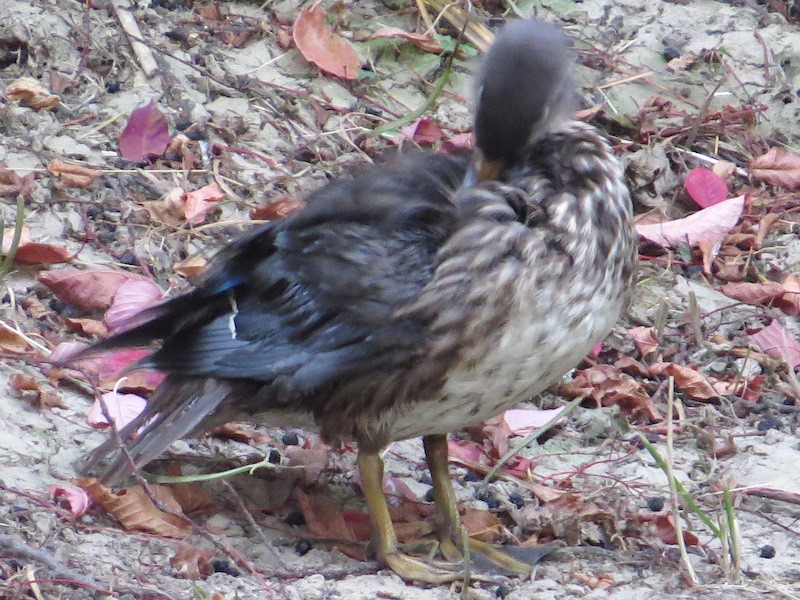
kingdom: Animalia
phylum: Chordata
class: Aves
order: Anseriformes
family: Anatidae
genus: Aix
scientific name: Aix galericulata
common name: Mandarin duck
